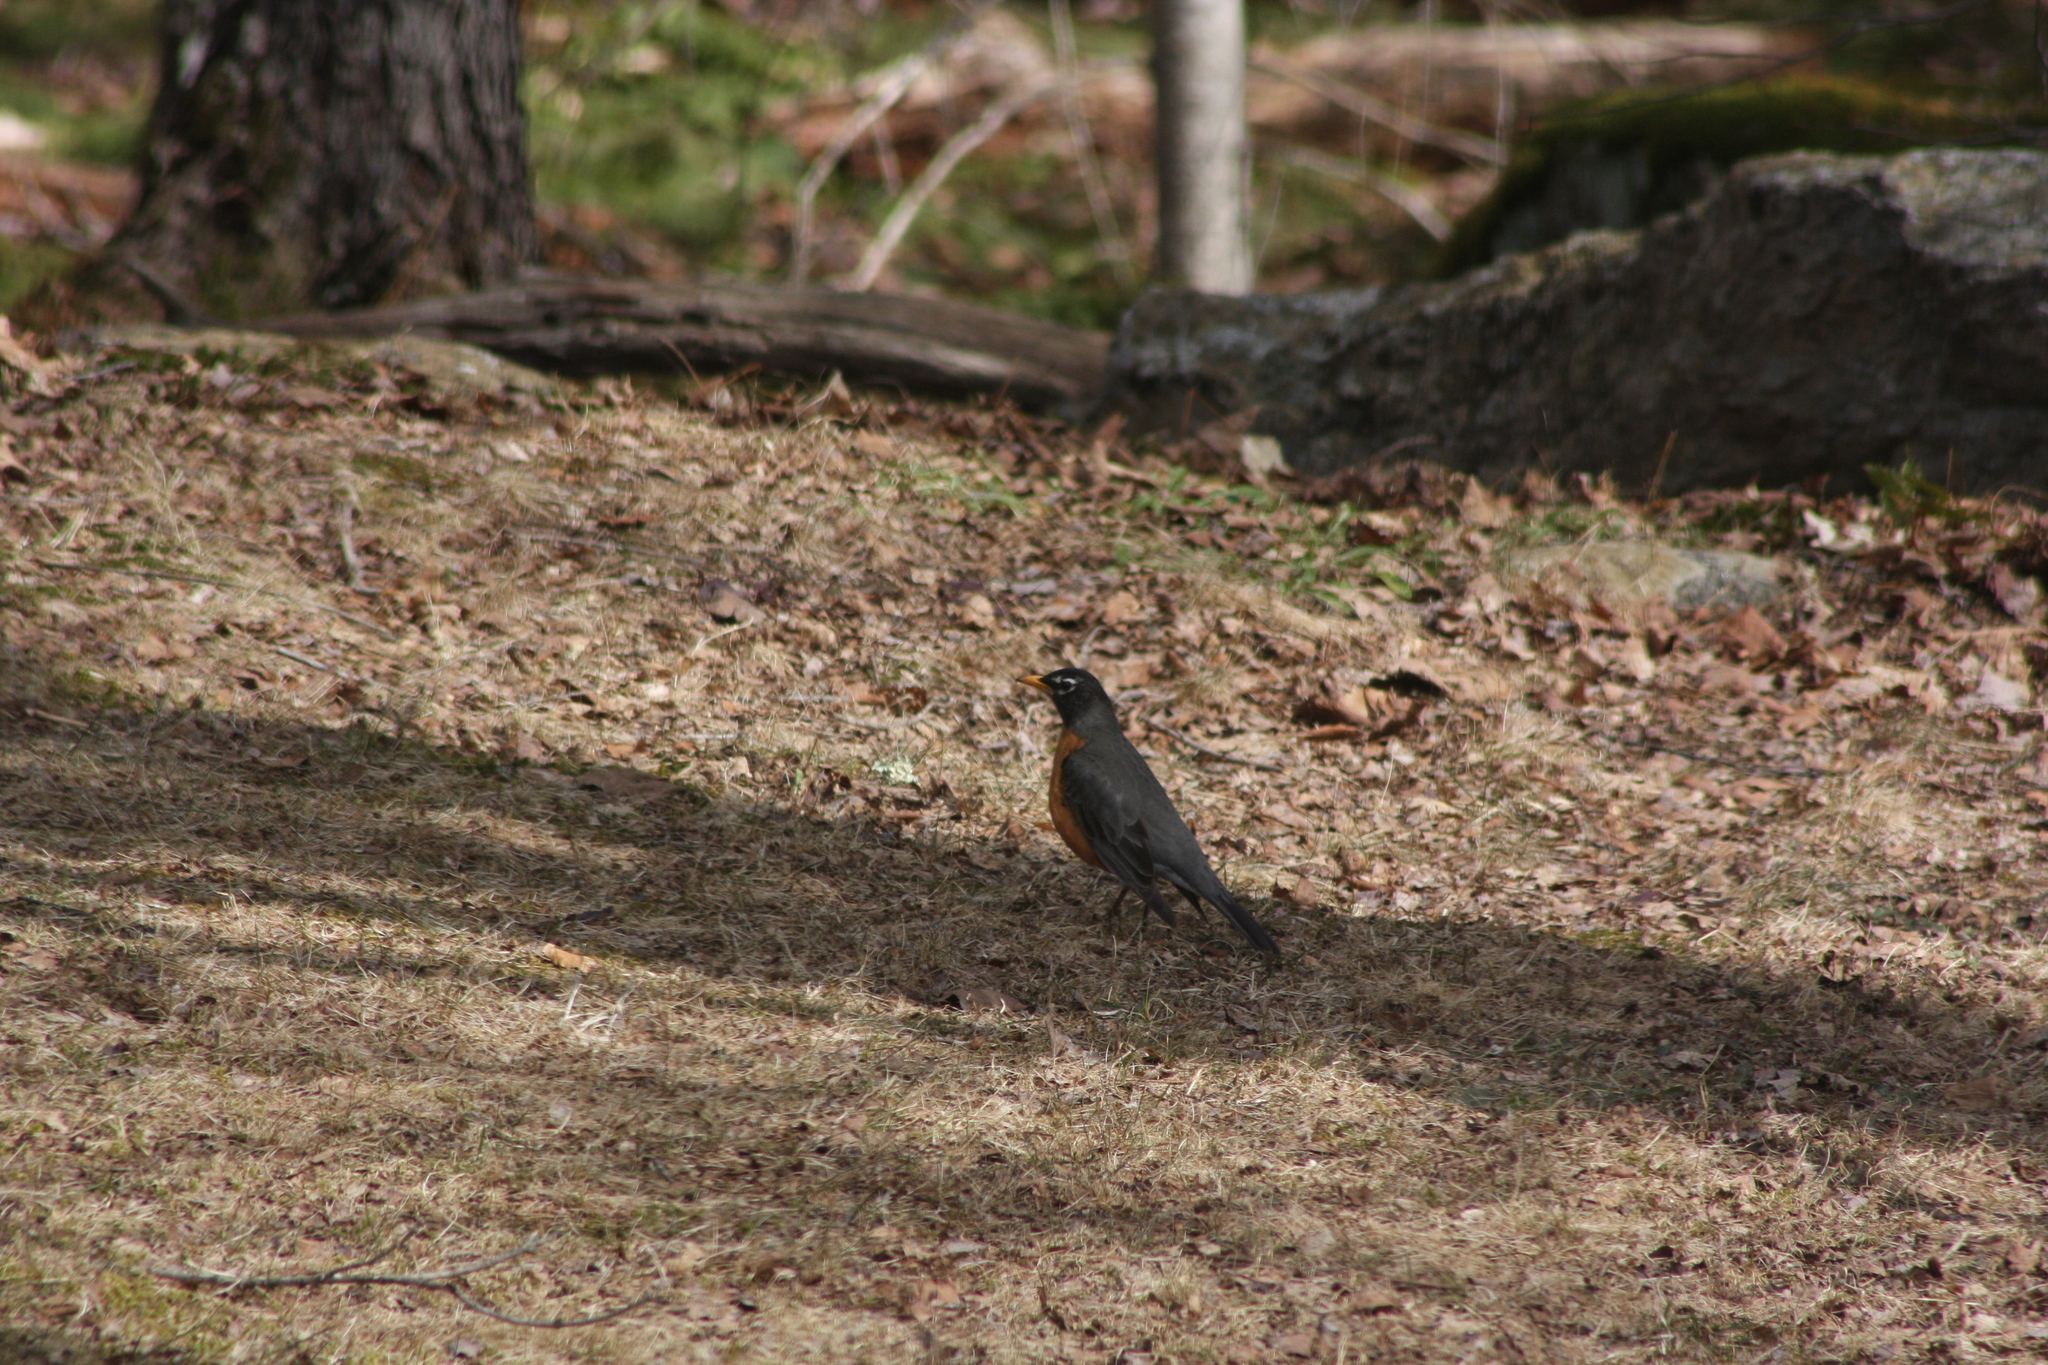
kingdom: Animalia
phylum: Chordata
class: Aves
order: Passeriformes
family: Turdidae
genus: Turdus
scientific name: Turdus migratorius
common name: American robin
